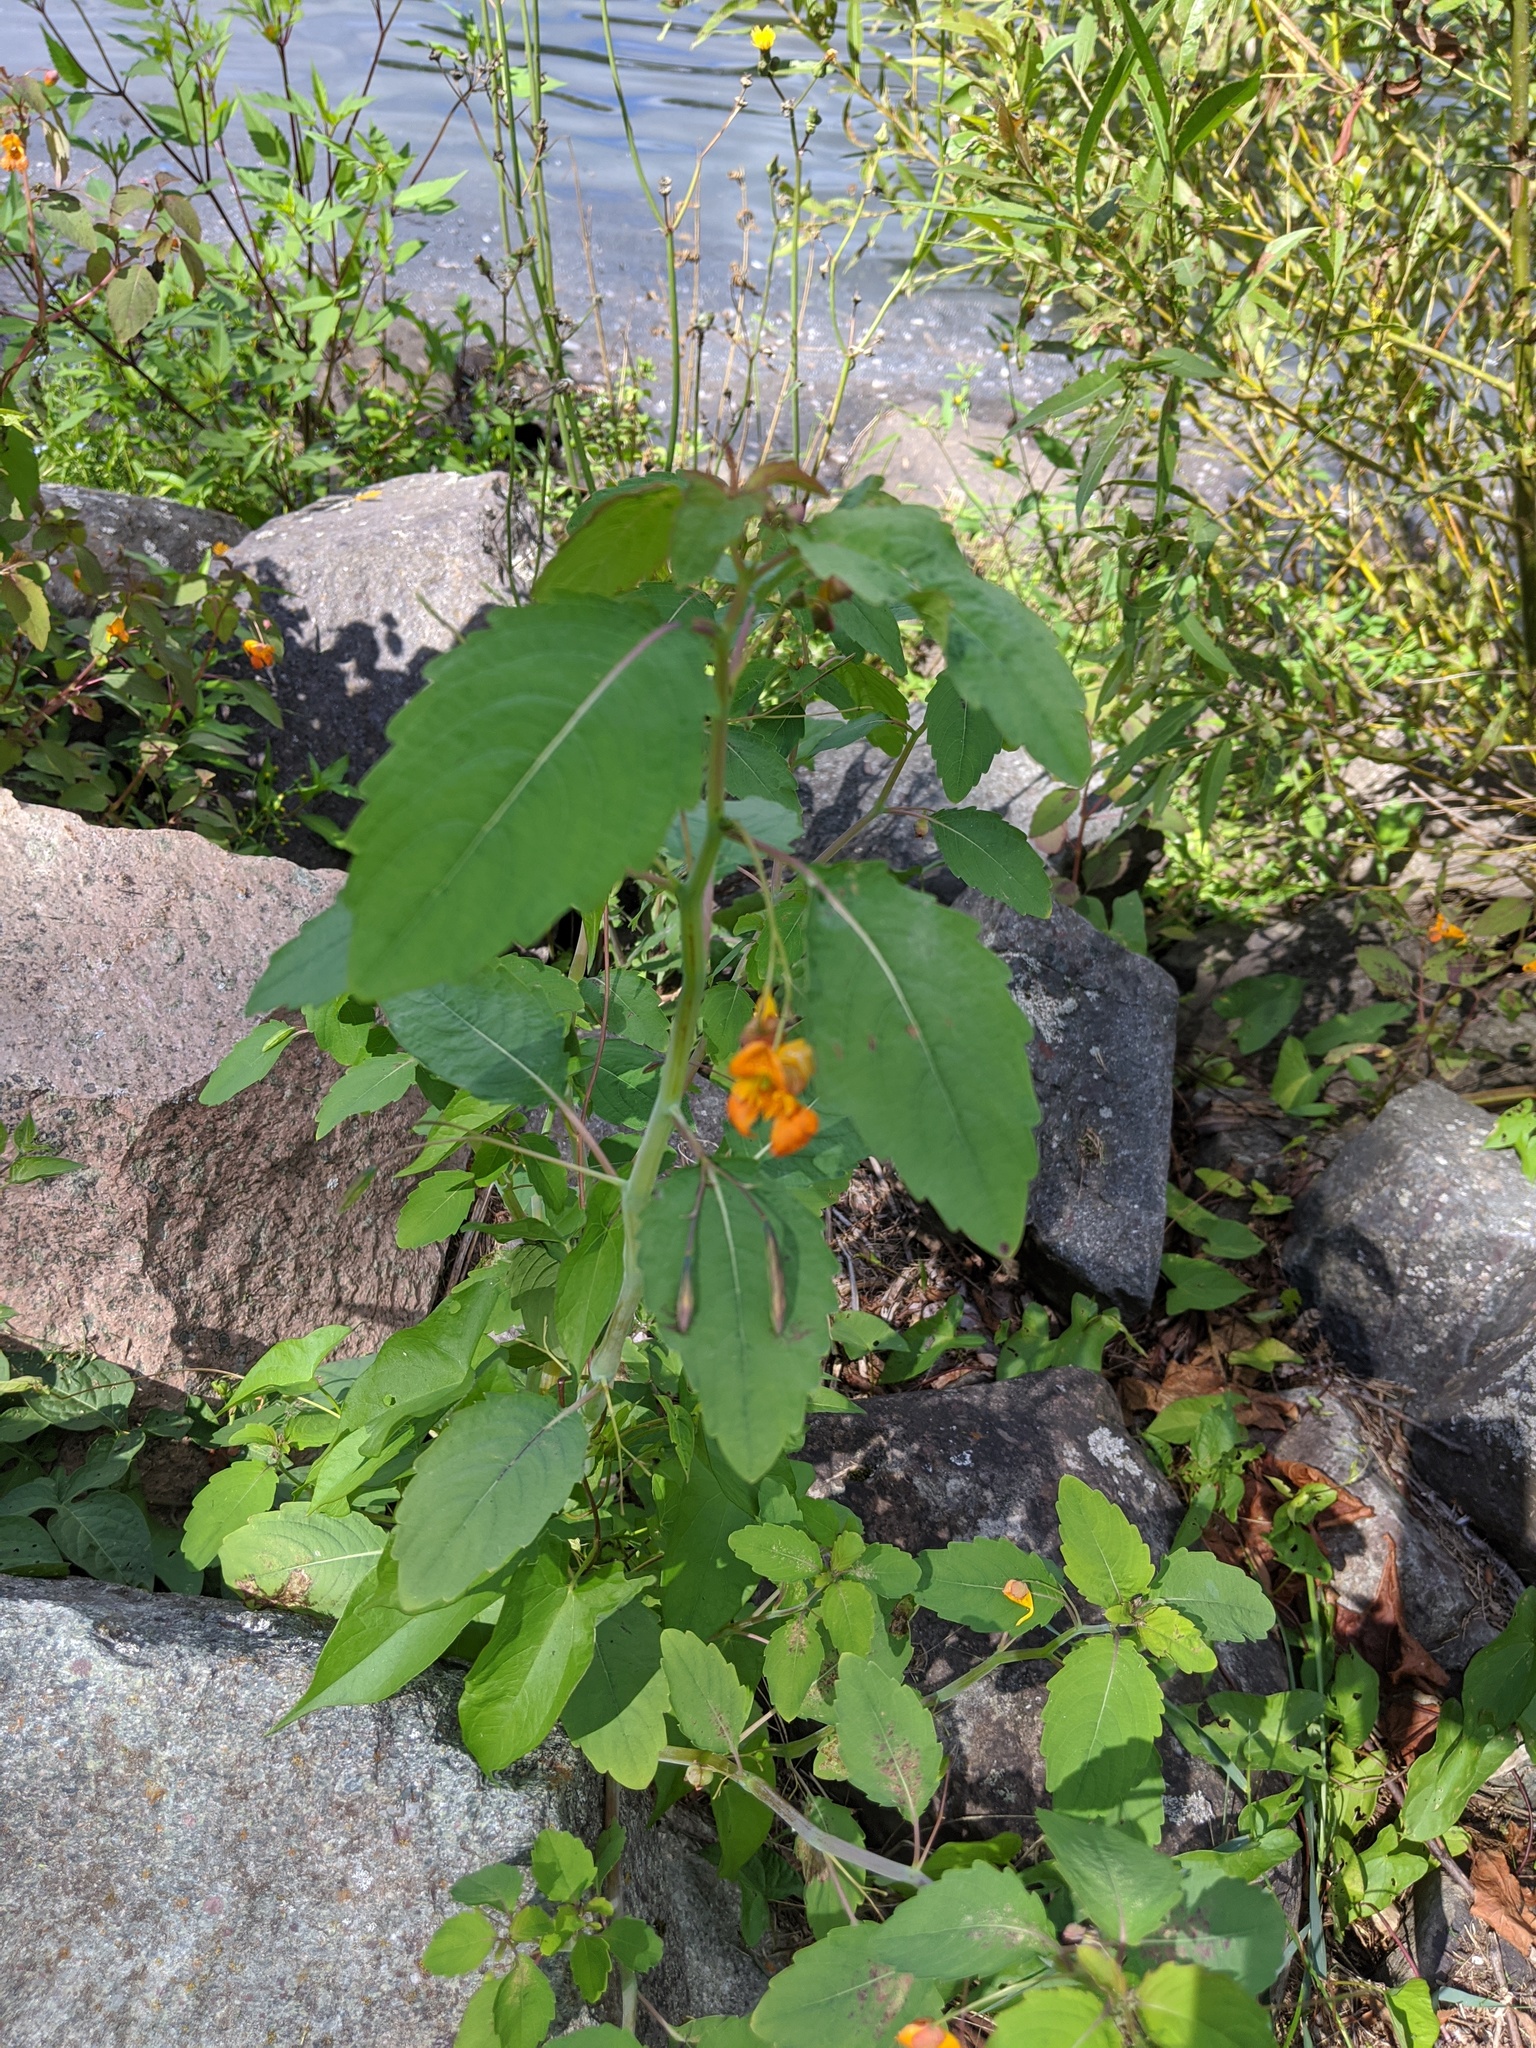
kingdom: Plantae
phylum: Tracheophyta
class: Magnoliopsida
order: Ericales
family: Balsaminaceae
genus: Impatiens
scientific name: Impatiens capensis
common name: Orange balsam
